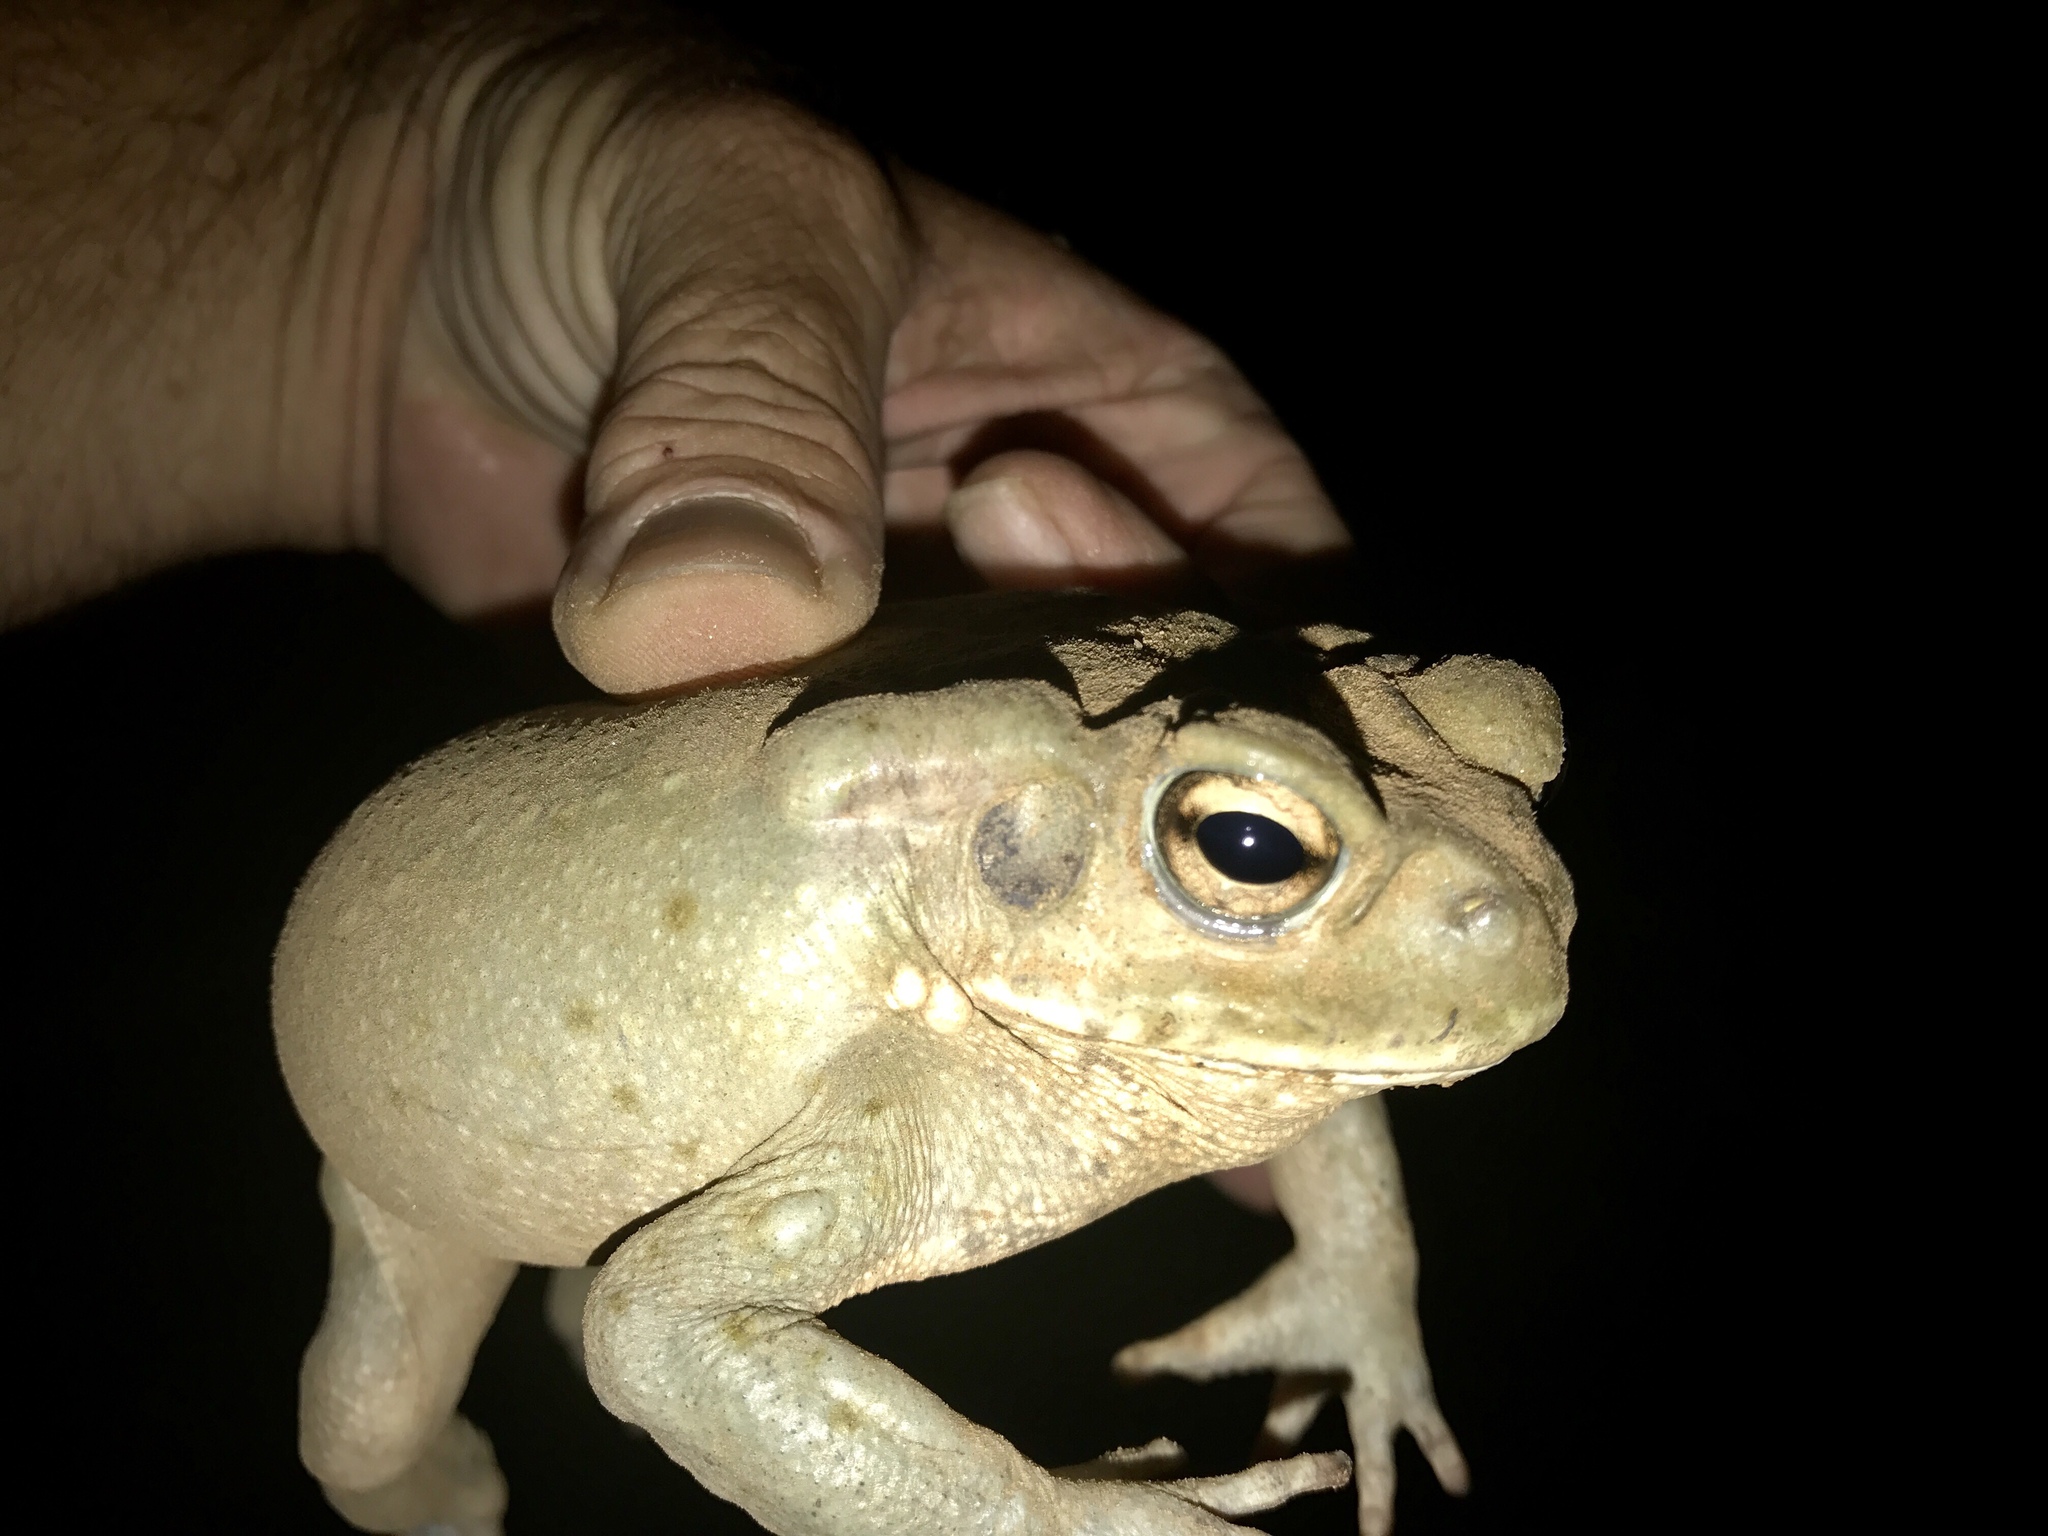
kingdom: Animalia
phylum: Chordata
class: Amphibia
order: Anura
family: Bufonidae
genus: Incilius
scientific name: Incilius alvarius
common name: Sonoran desert toad
